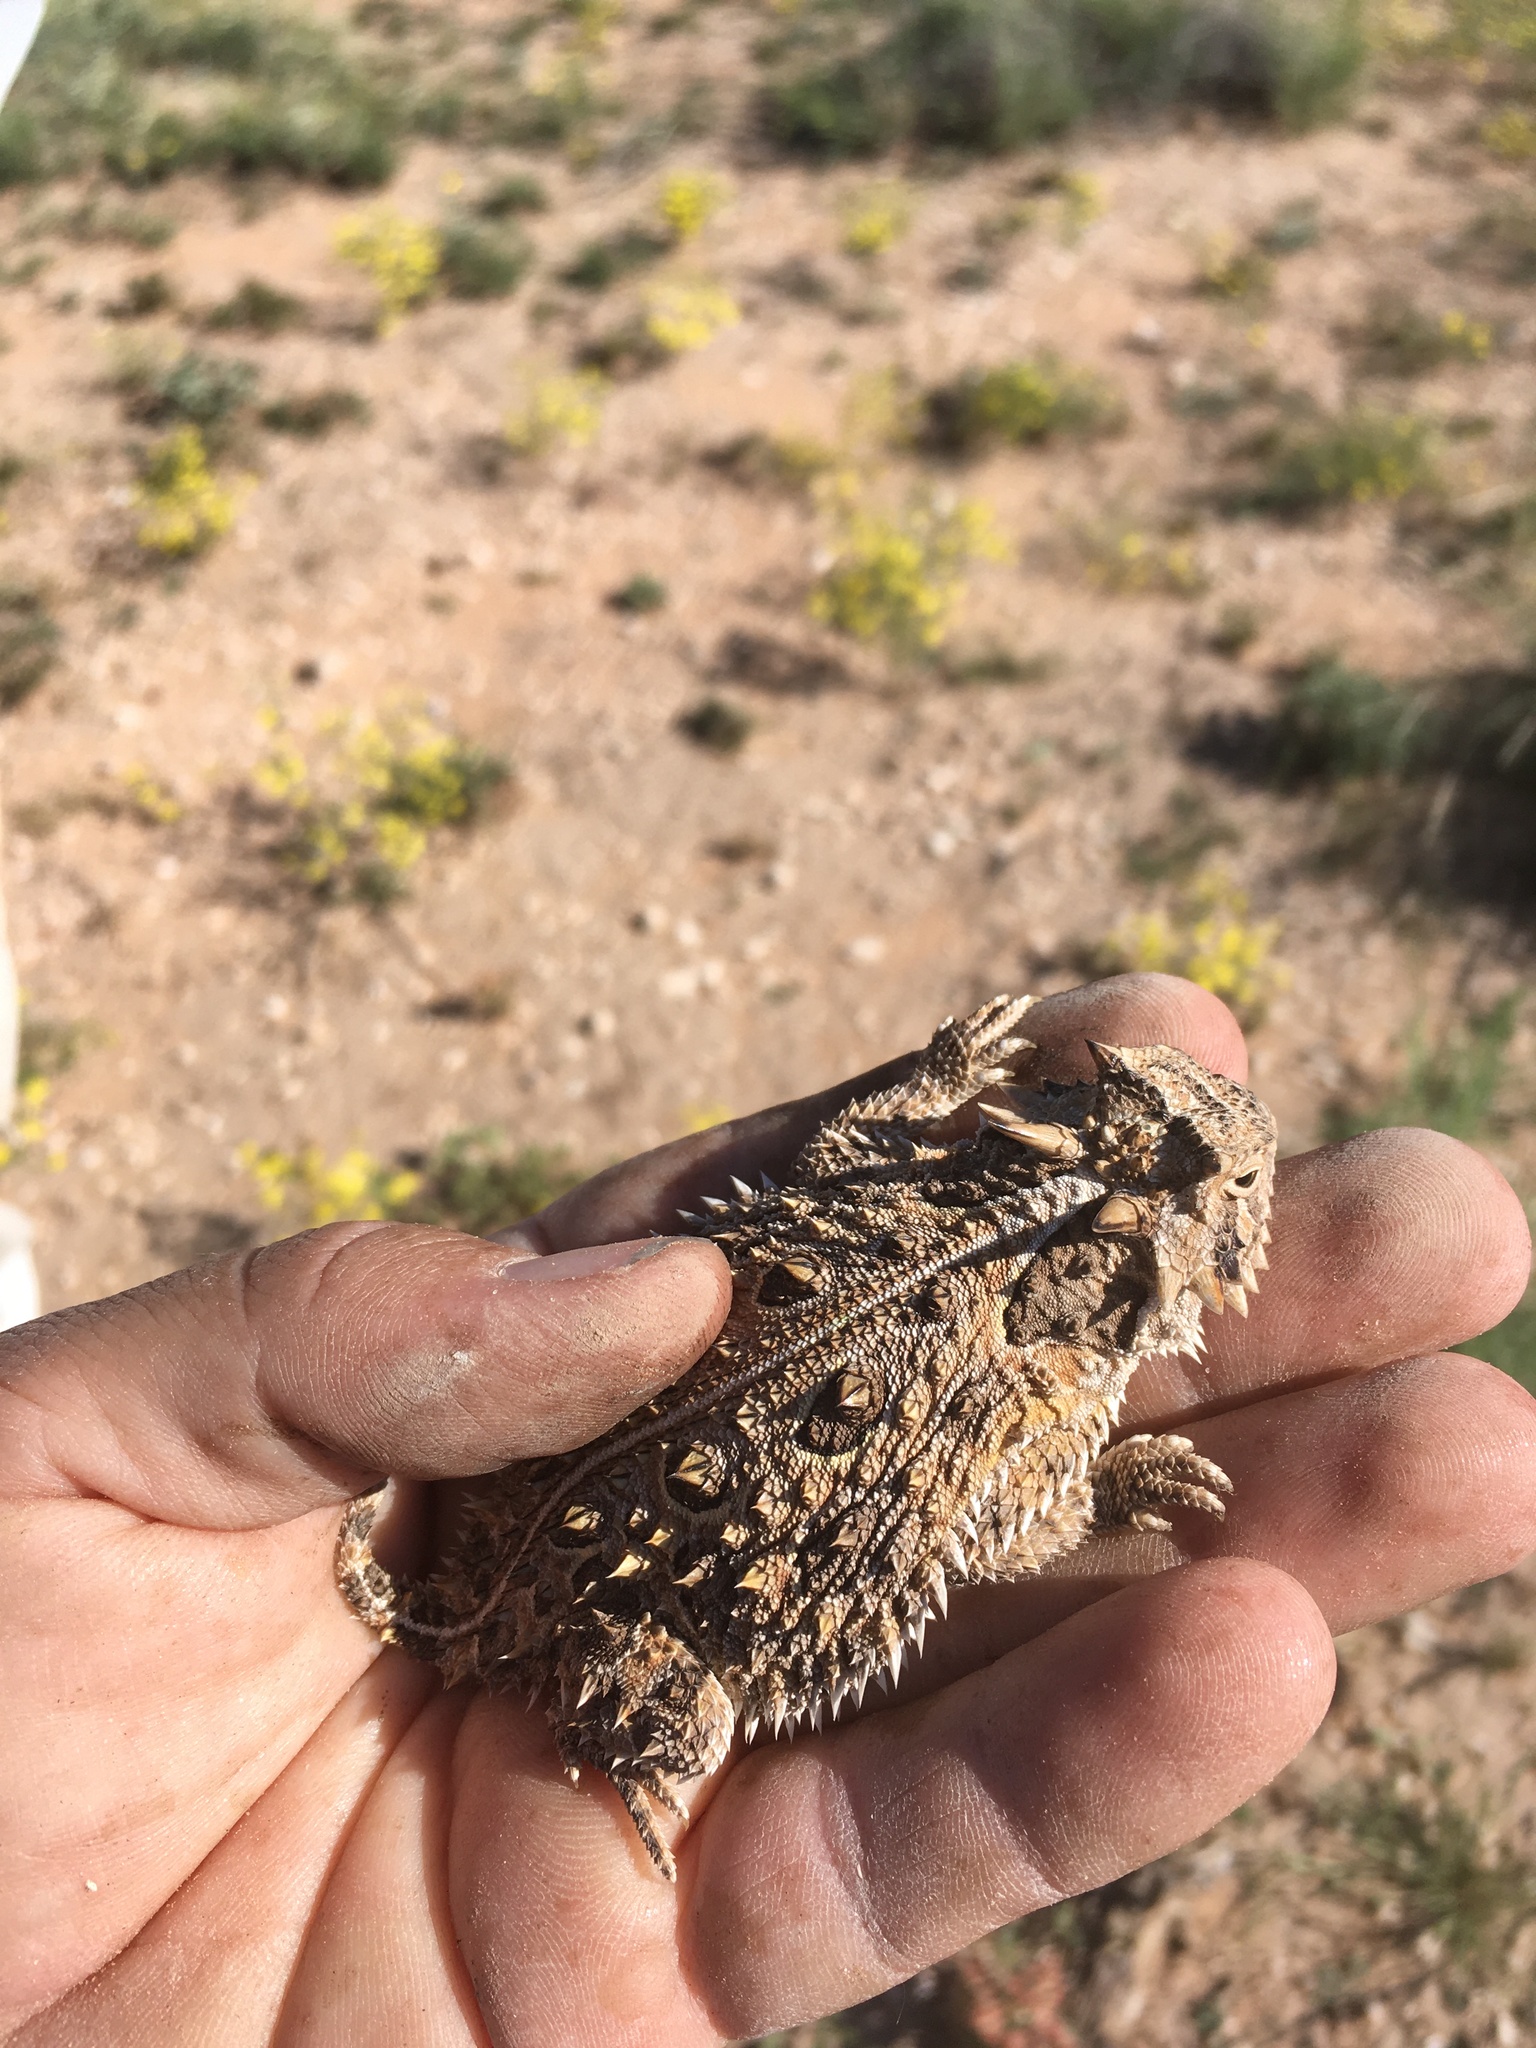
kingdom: Animalia
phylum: Chordata
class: Squamata
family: Phrynosomatidae
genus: Phrynosoma
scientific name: Phrynosoma cornutum
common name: Texas horned lizard
